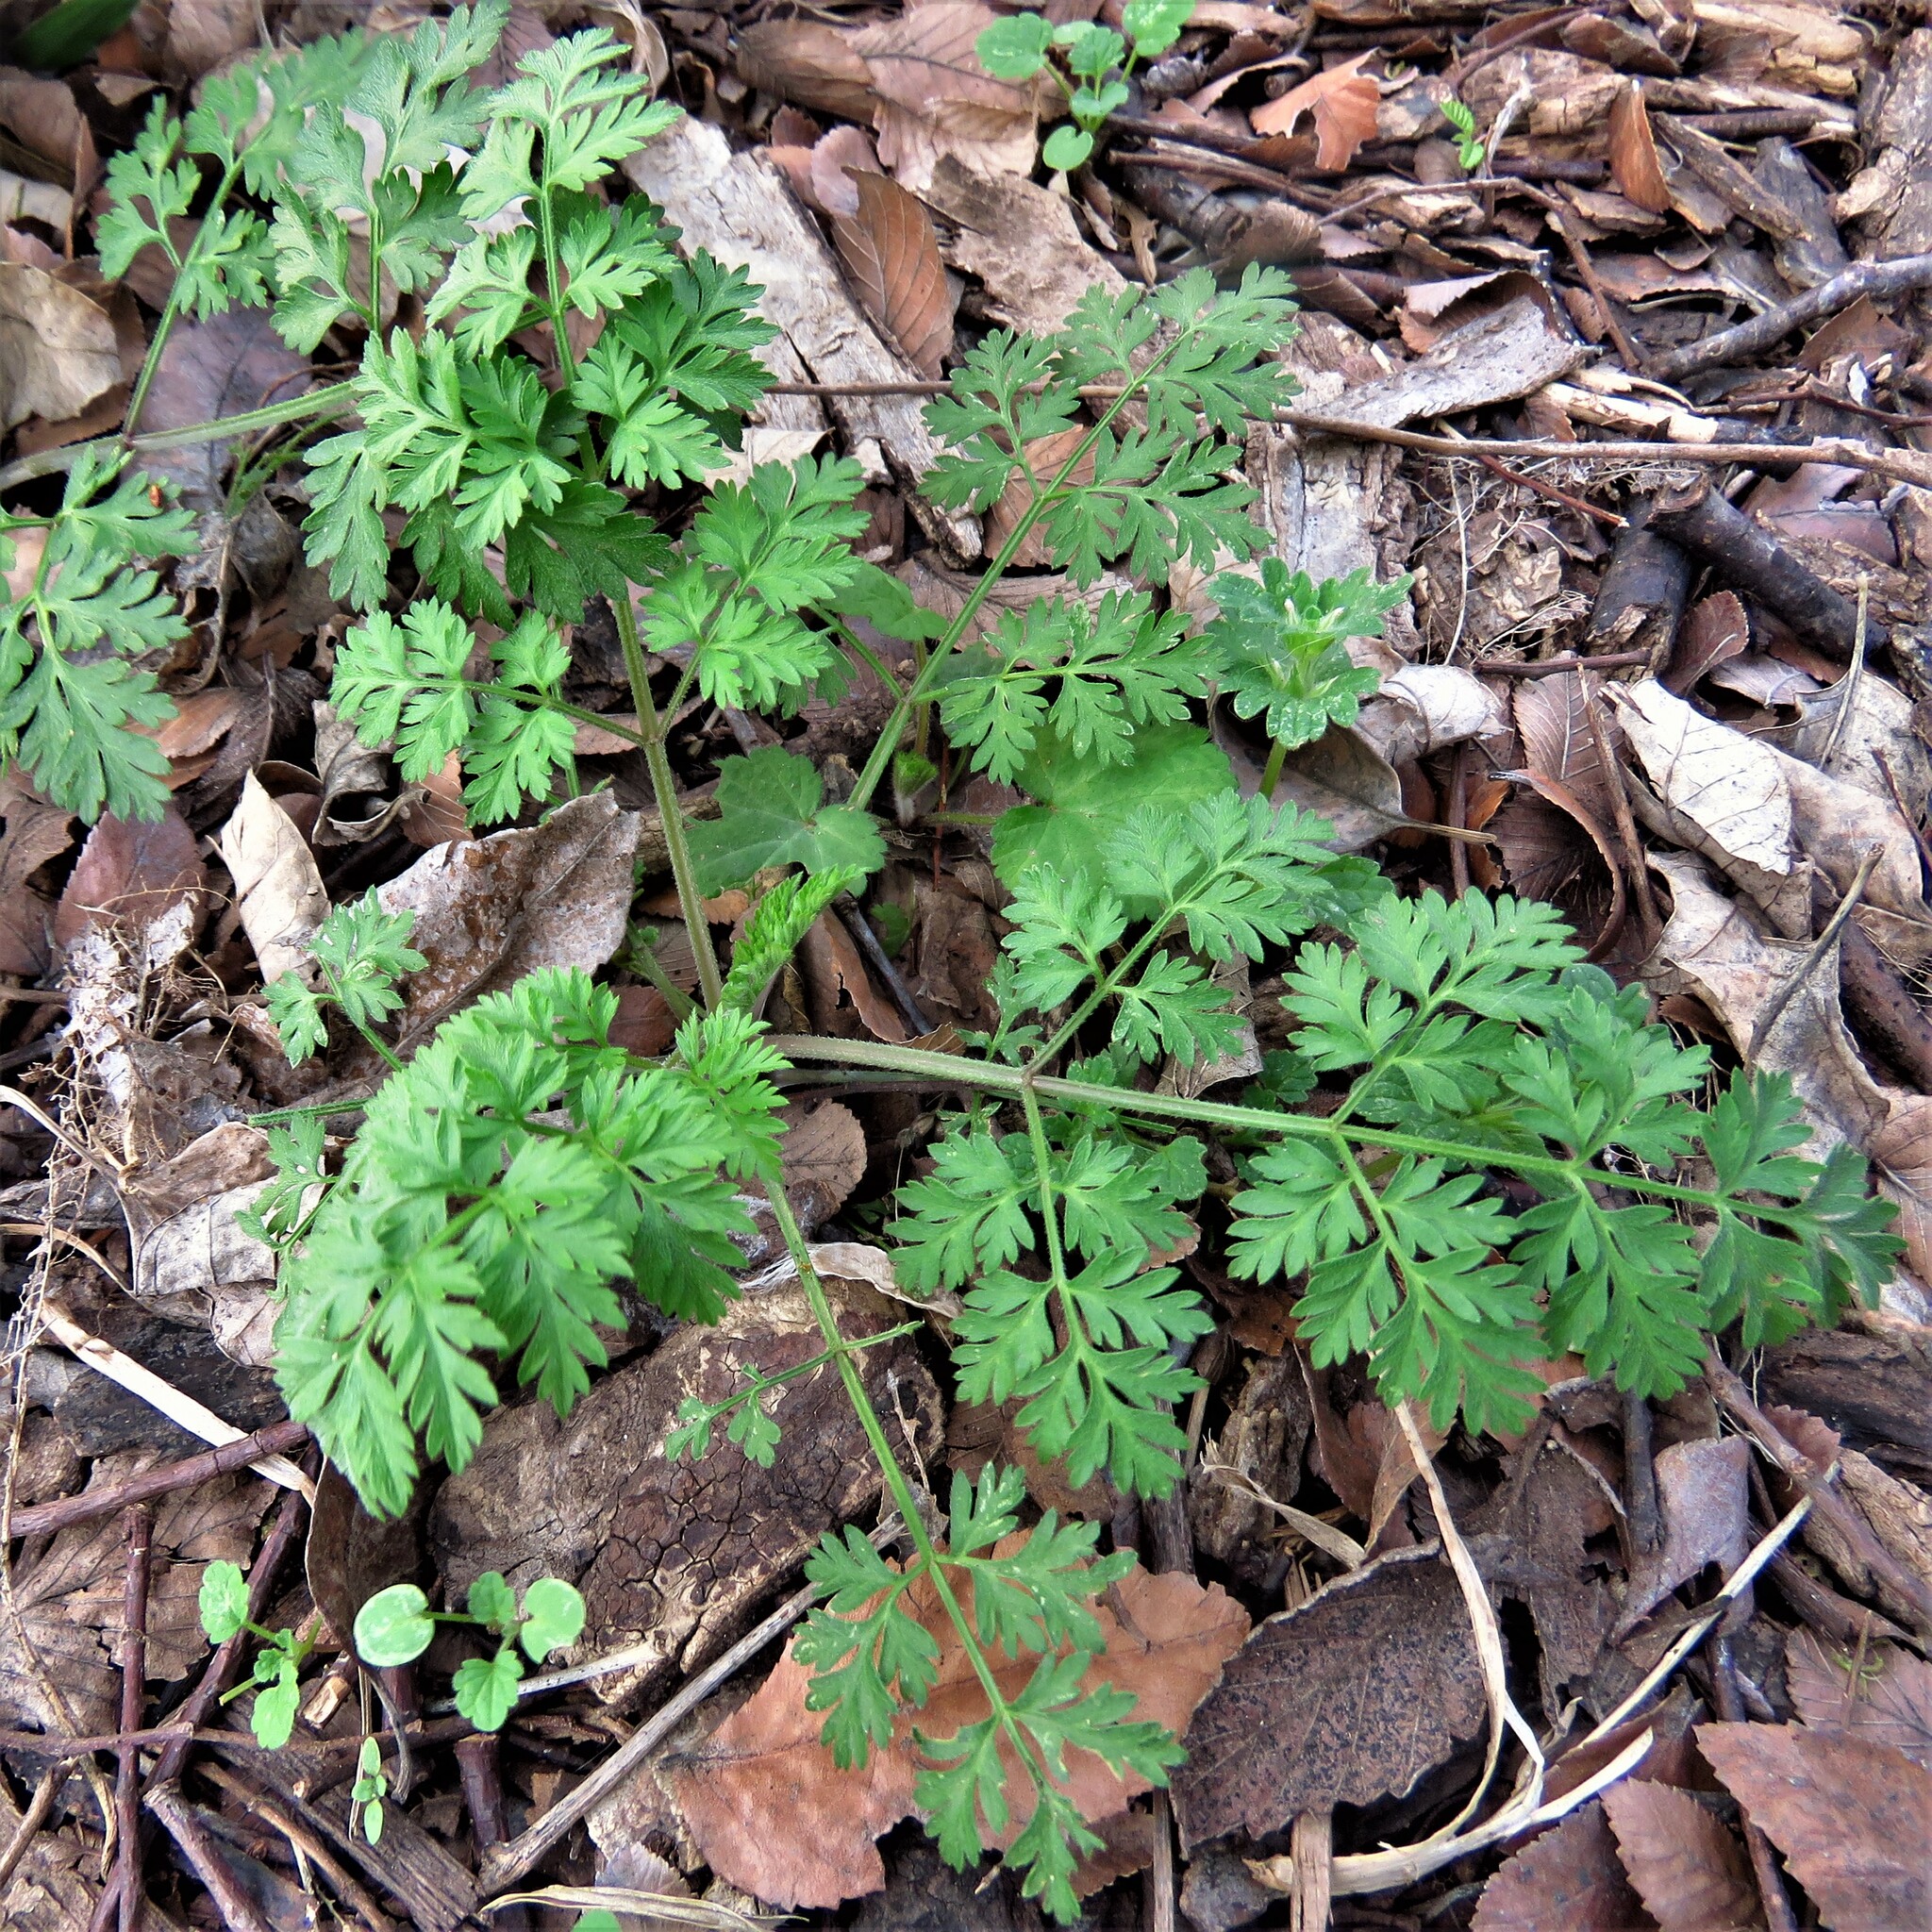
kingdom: Plantae
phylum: Tracheophyta
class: Magnoliopsida
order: Apiales
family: Apiaceae
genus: Torilis
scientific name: Torilis arvensis
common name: Spreading hedge-parsley
